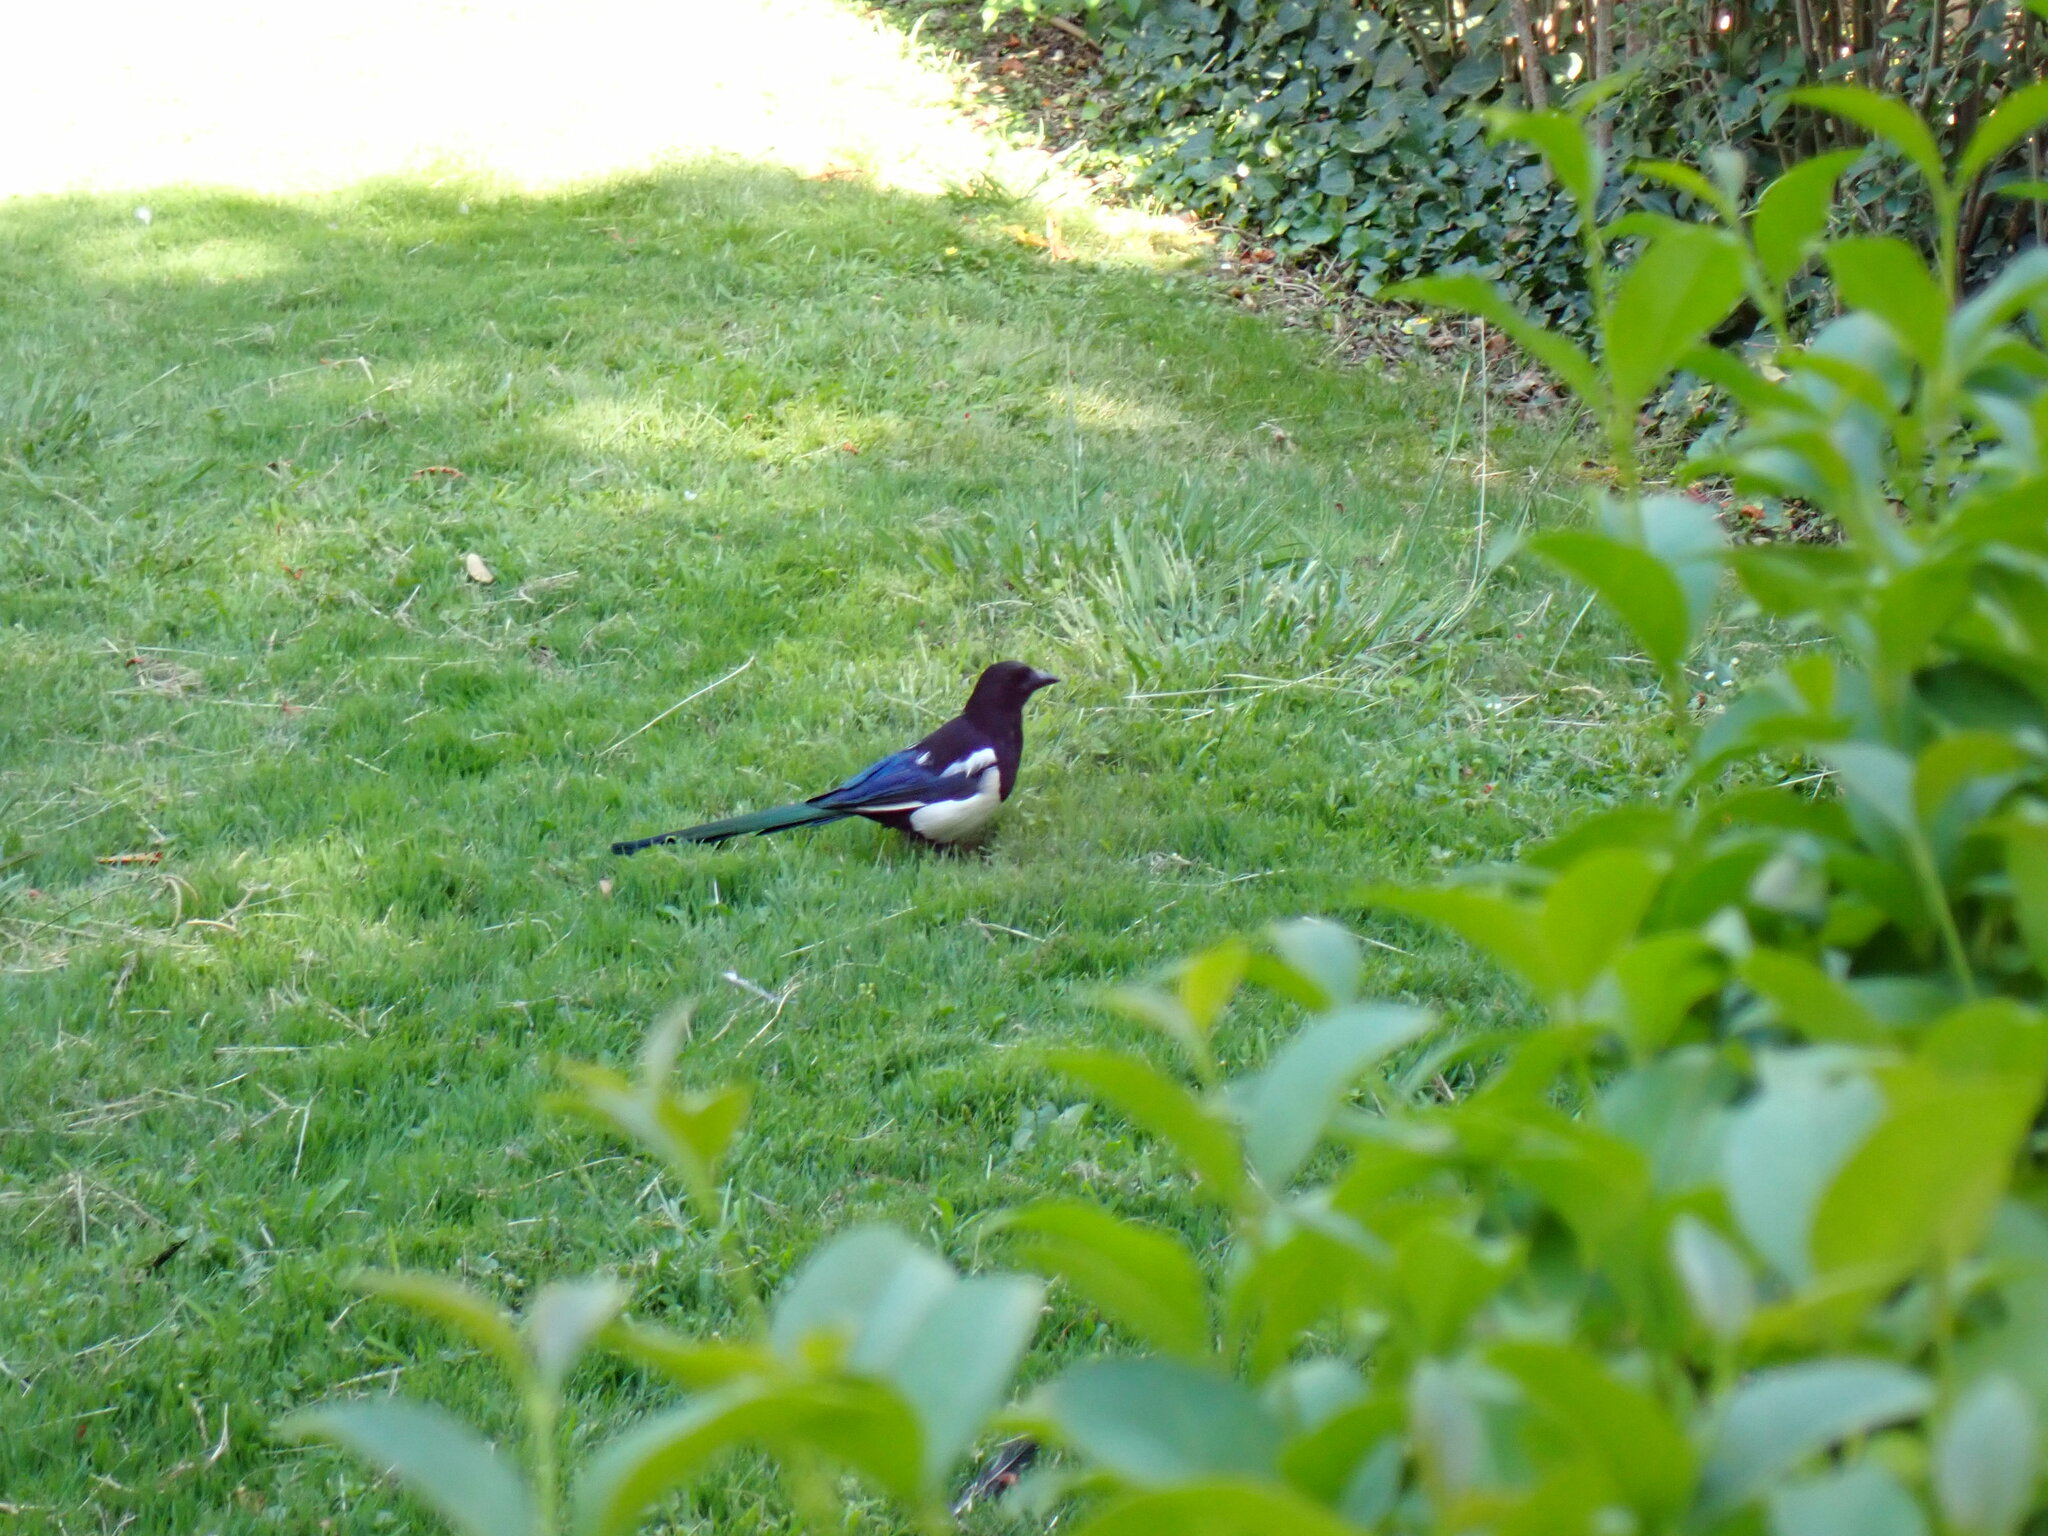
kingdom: Animalia
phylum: Chordata
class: Aves
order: Passeriformes
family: Corvidae
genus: Pica
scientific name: Pica pica
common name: Eurasian magpie
